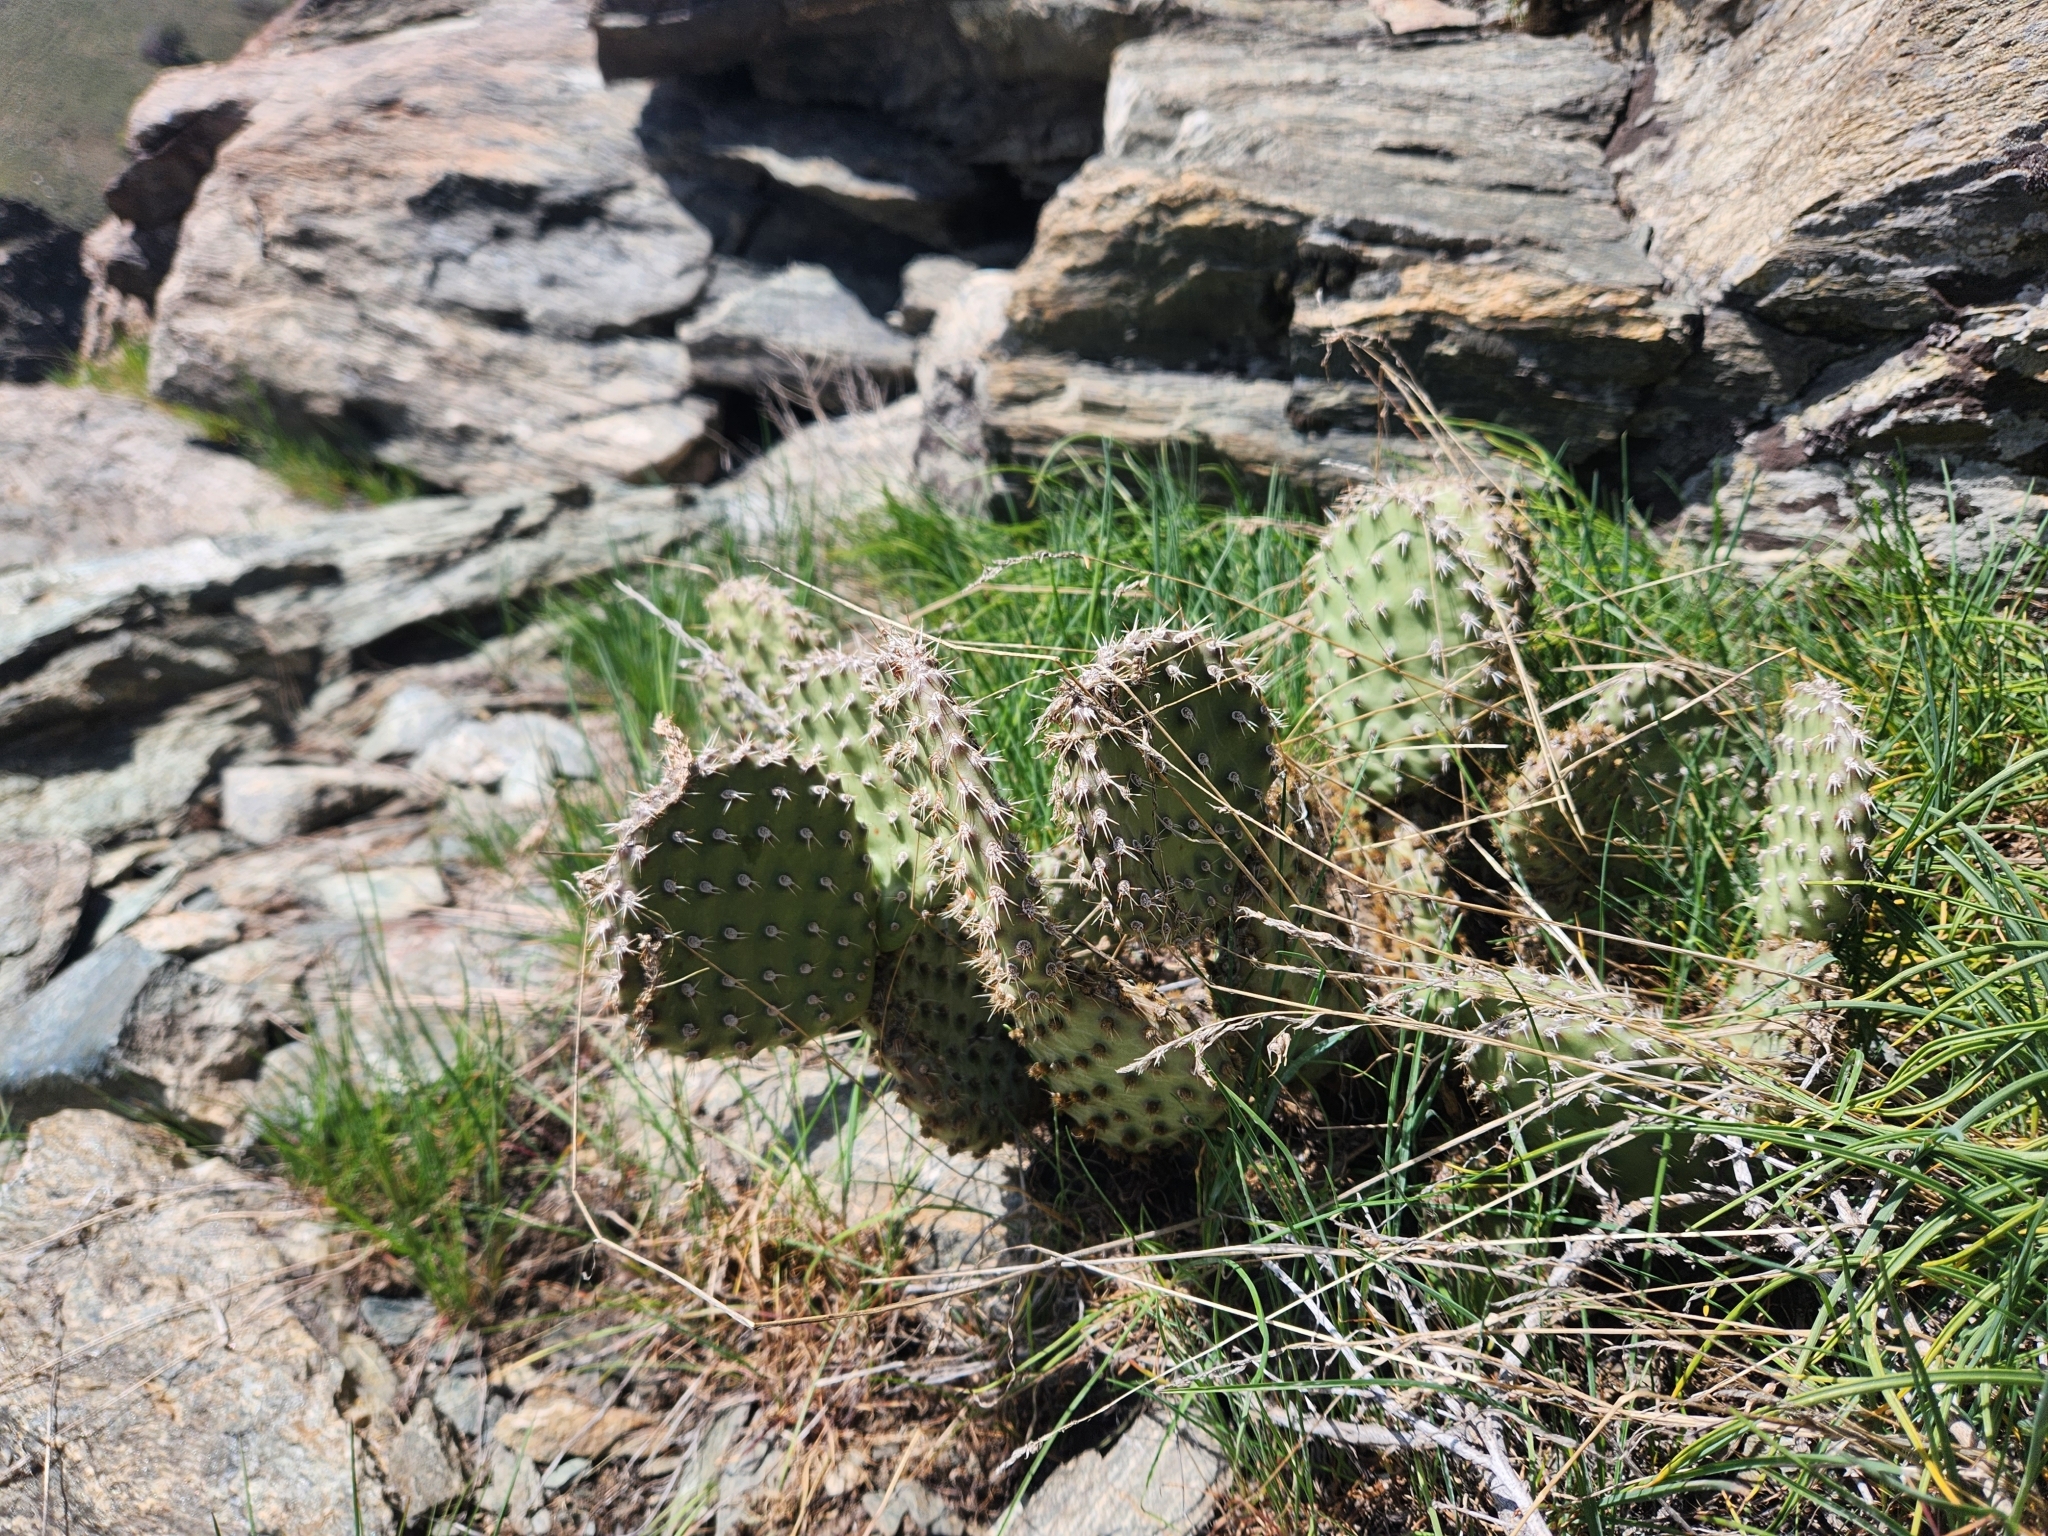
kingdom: Plantae
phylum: Tracheophyta
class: Magnoliopsida
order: Caryophyllales
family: Cactaceae
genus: Opuntia
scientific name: Opuntia polyacantha
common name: Plains prickly-pear
